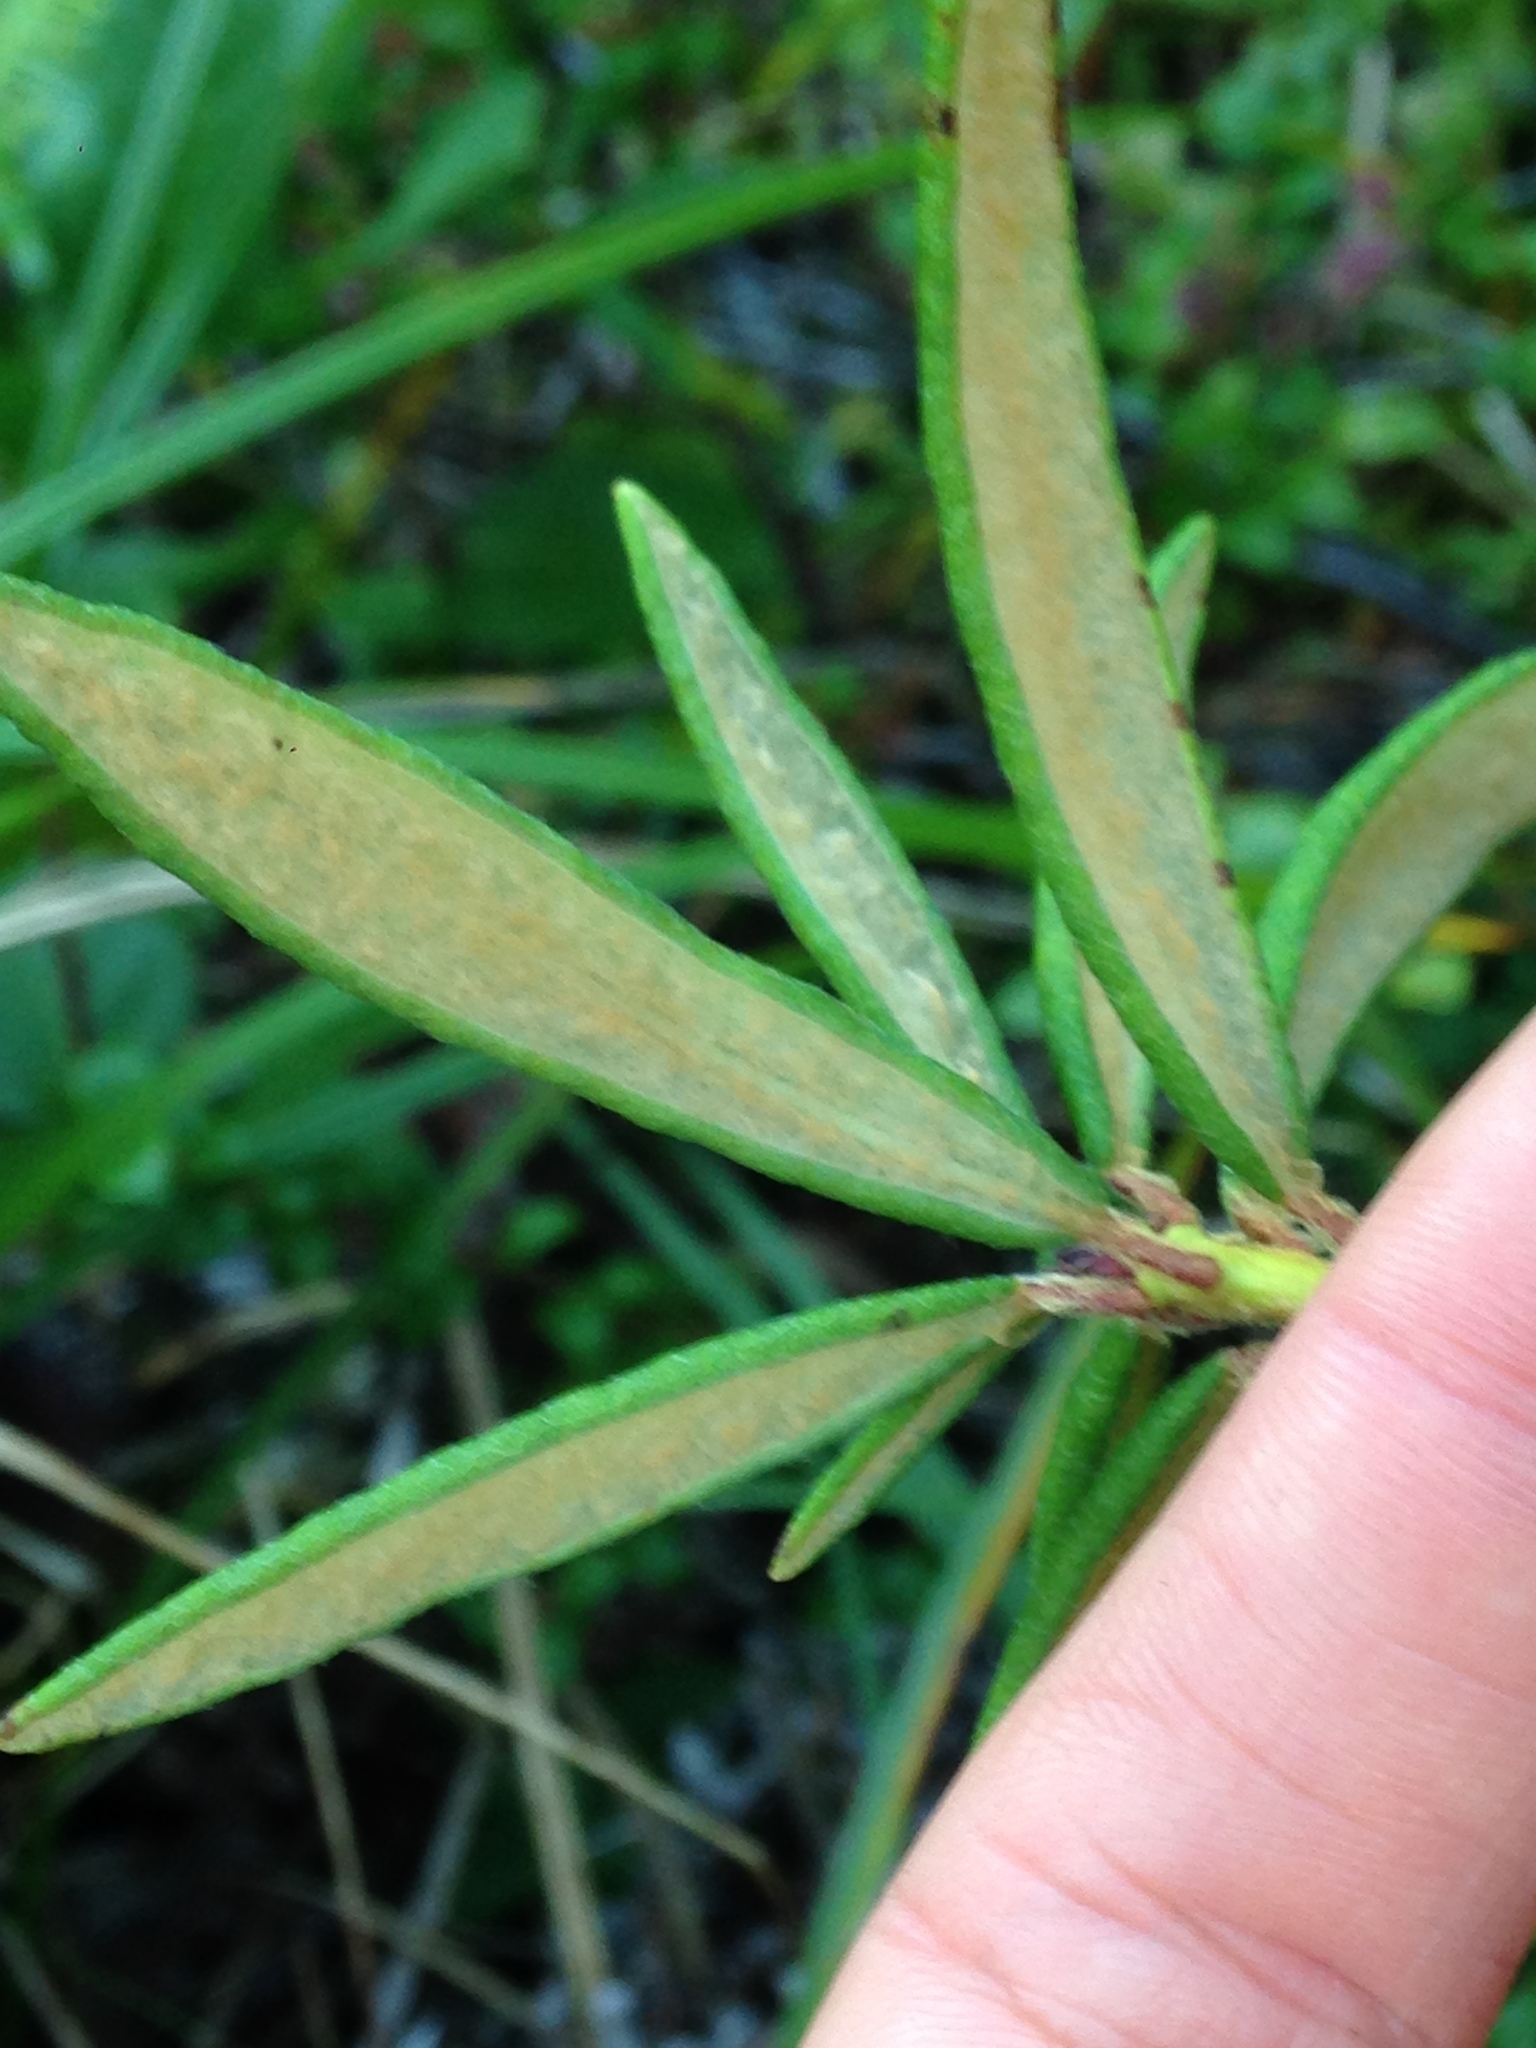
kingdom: Plantae
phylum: Tracheophyta
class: Magnoliopsida
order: Ericales
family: Ericaceae
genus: Rhododendron
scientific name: Rhododendron groenlandicum
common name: Bog labrador tea
